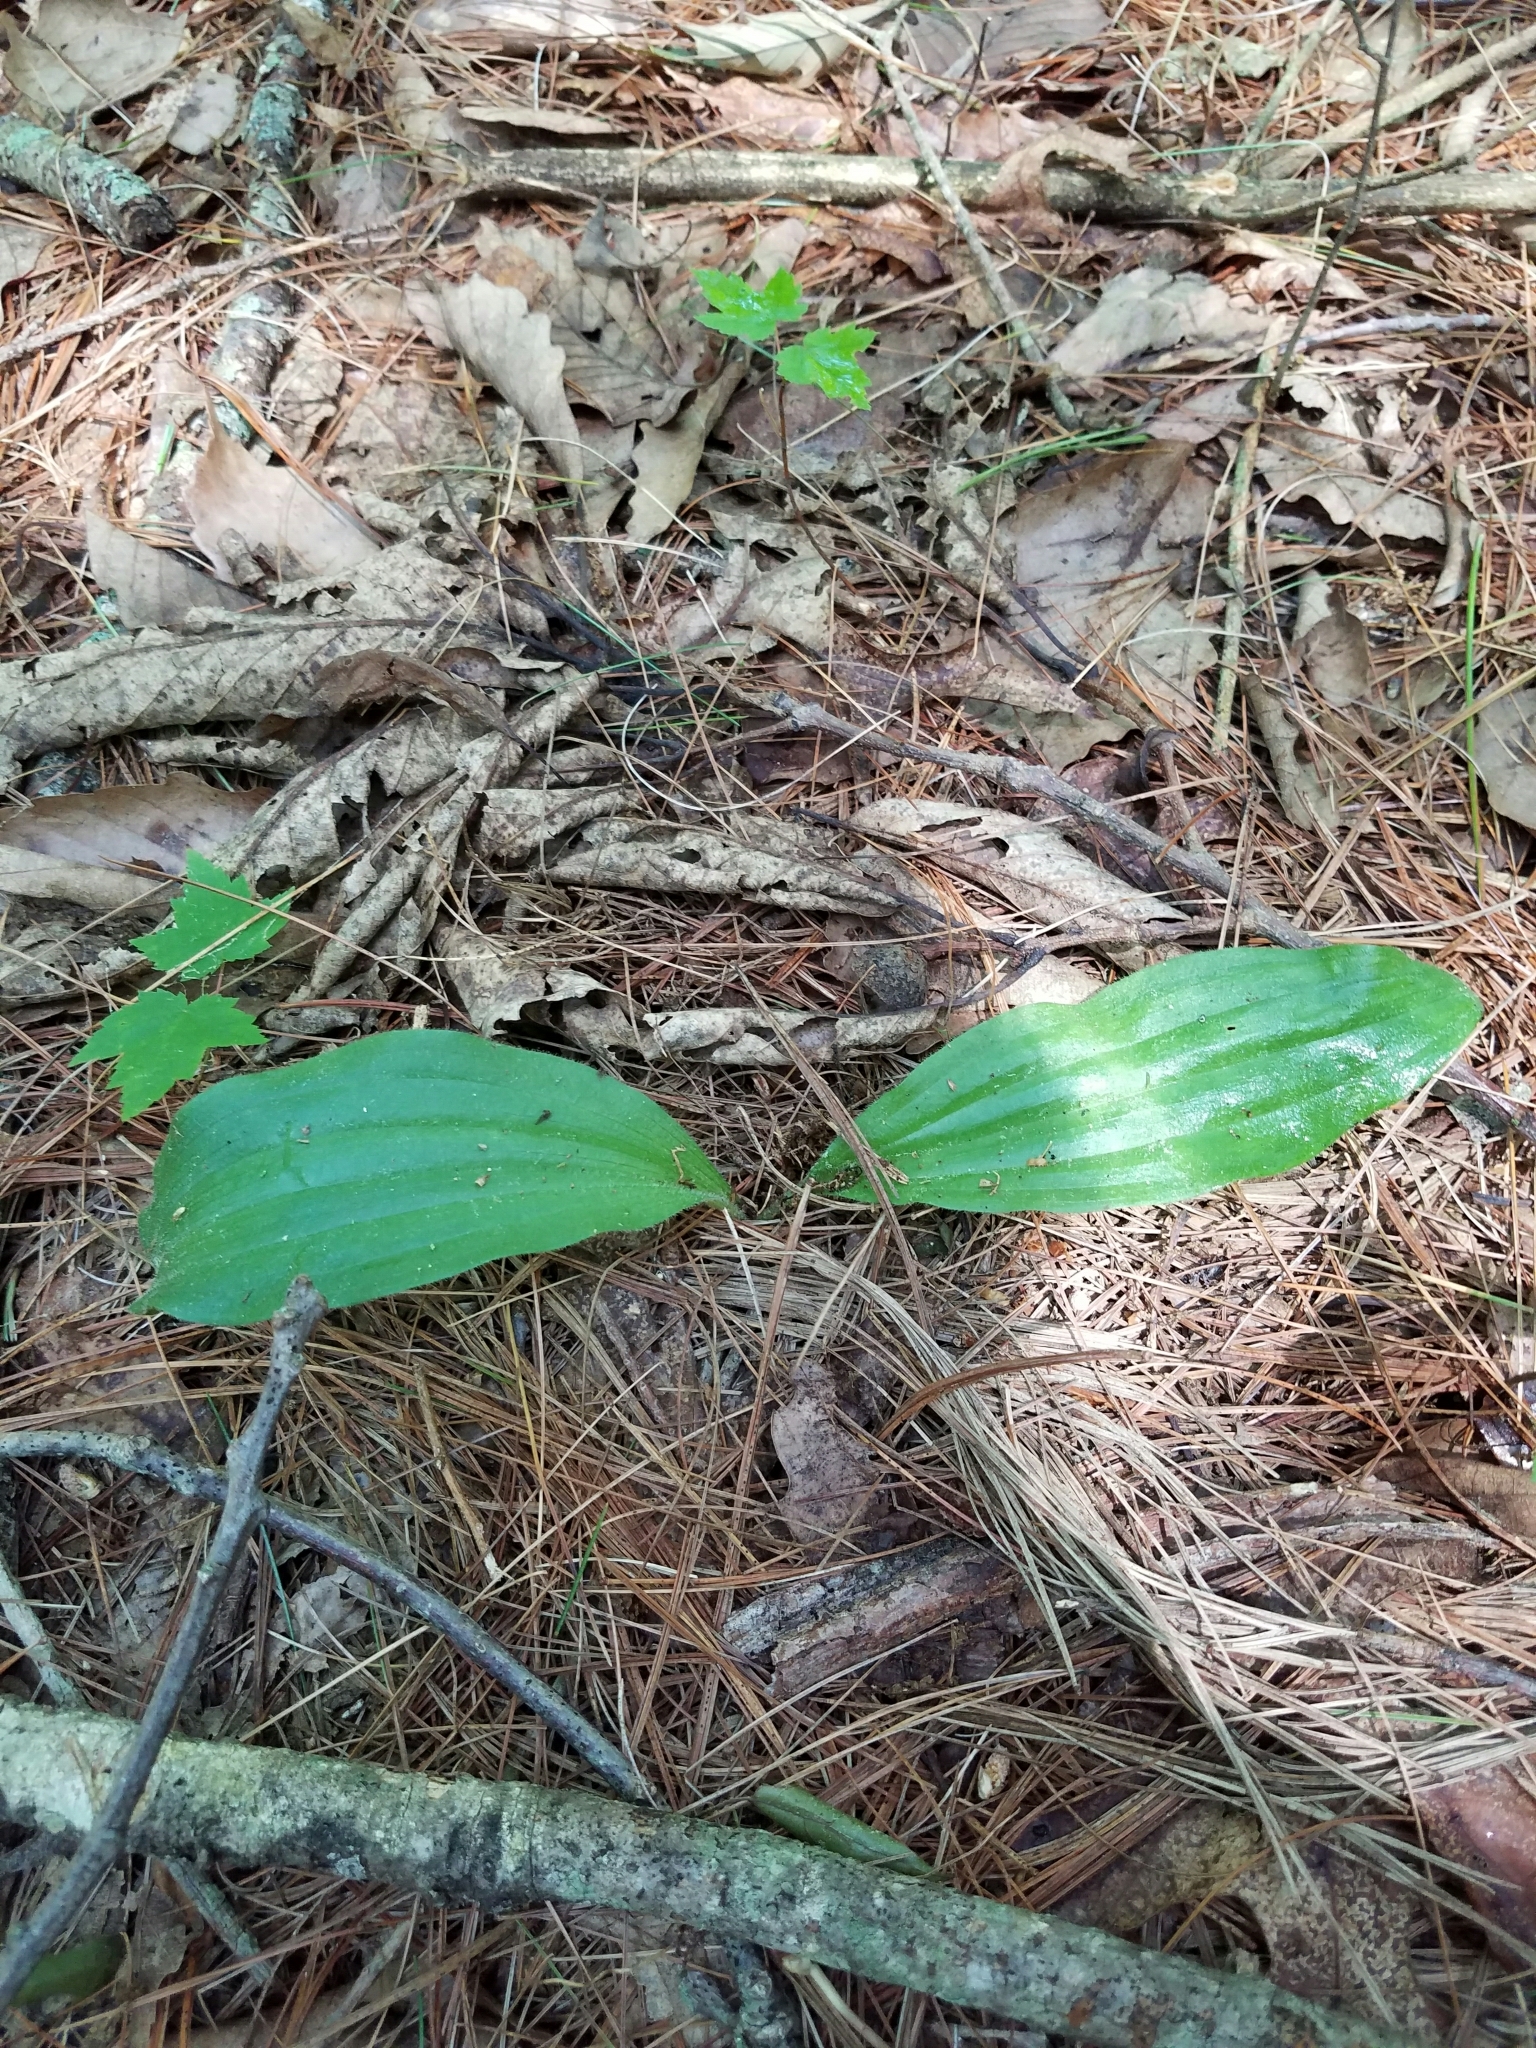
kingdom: Plantae
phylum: Tracheophyta
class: Liliopsida
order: Asparagales
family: Orchidaceae
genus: Cypripedium
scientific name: Cypripedium acaule
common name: Pink lady's-slipper
